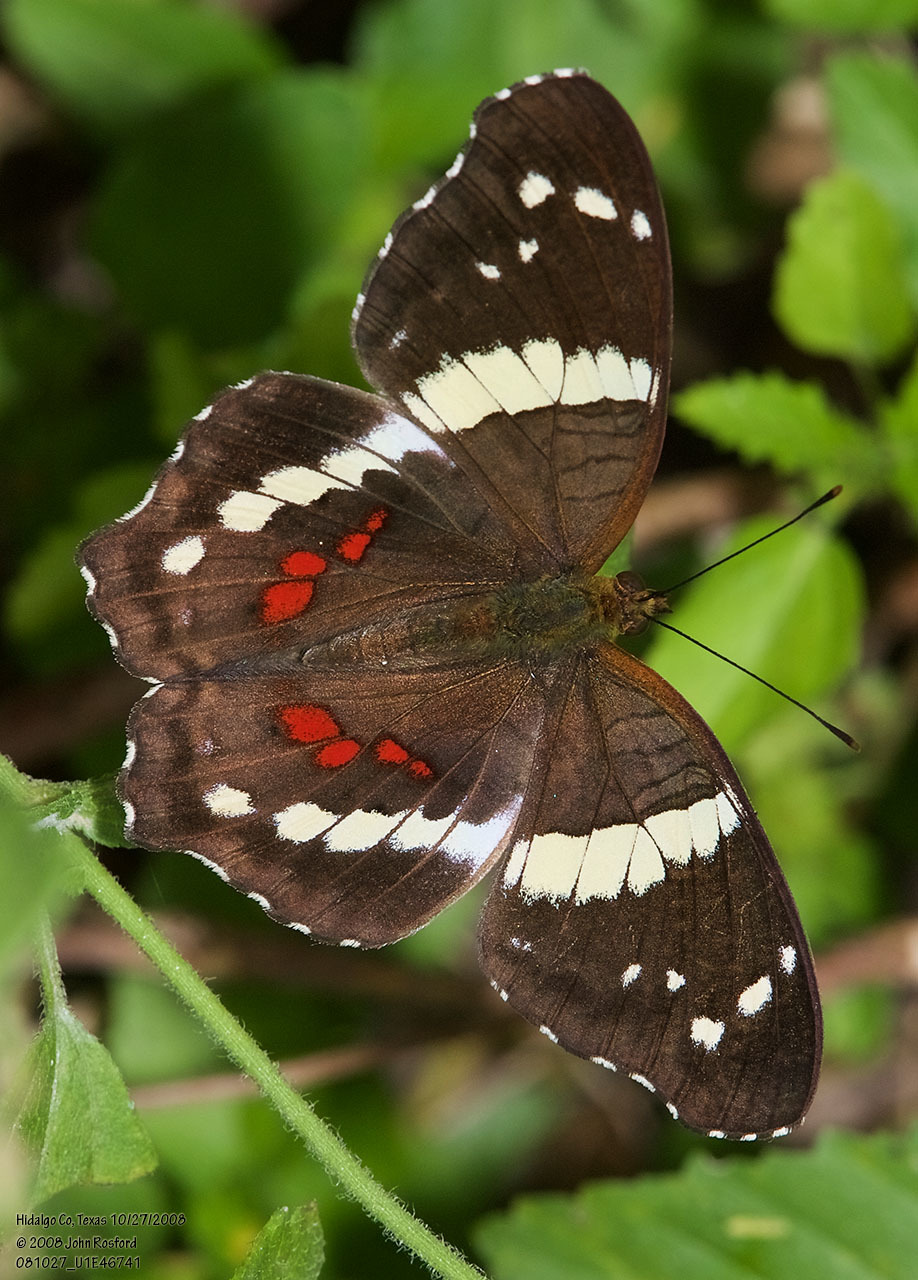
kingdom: Animalia
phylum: Arthropoda
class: Insecta
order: Lepidoptera
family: Nymphalidae
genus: Anartia
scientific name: Anartia fatima
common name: Banded peacock
